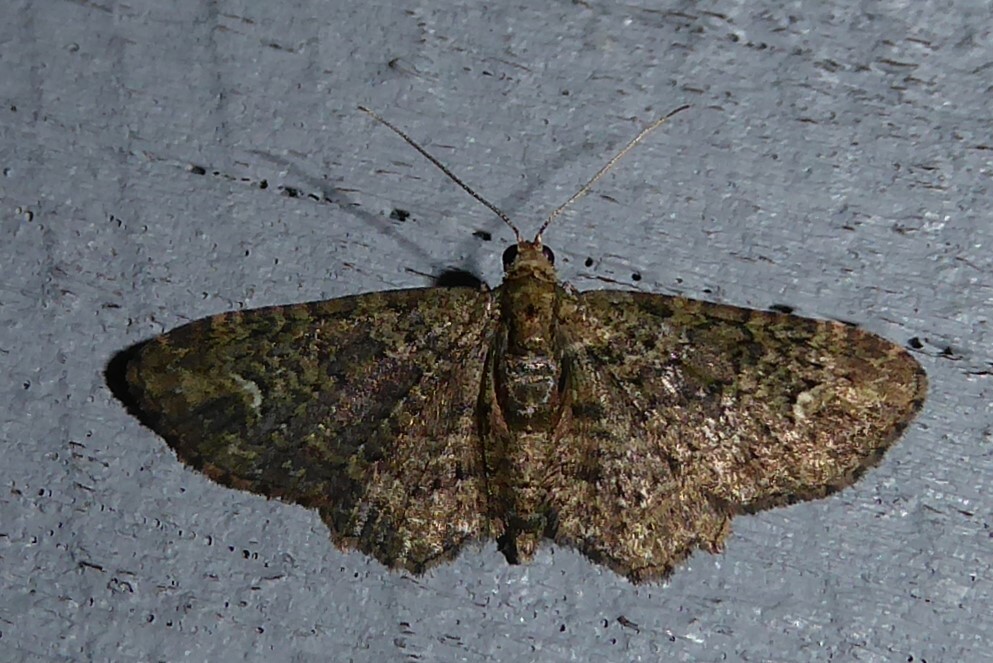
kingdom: Animalia
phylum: Arthropoda
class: Insecta
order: Lepidoptera
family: Geometridae
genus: Pasiphilodes
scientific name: Pasiphilodes testulata
